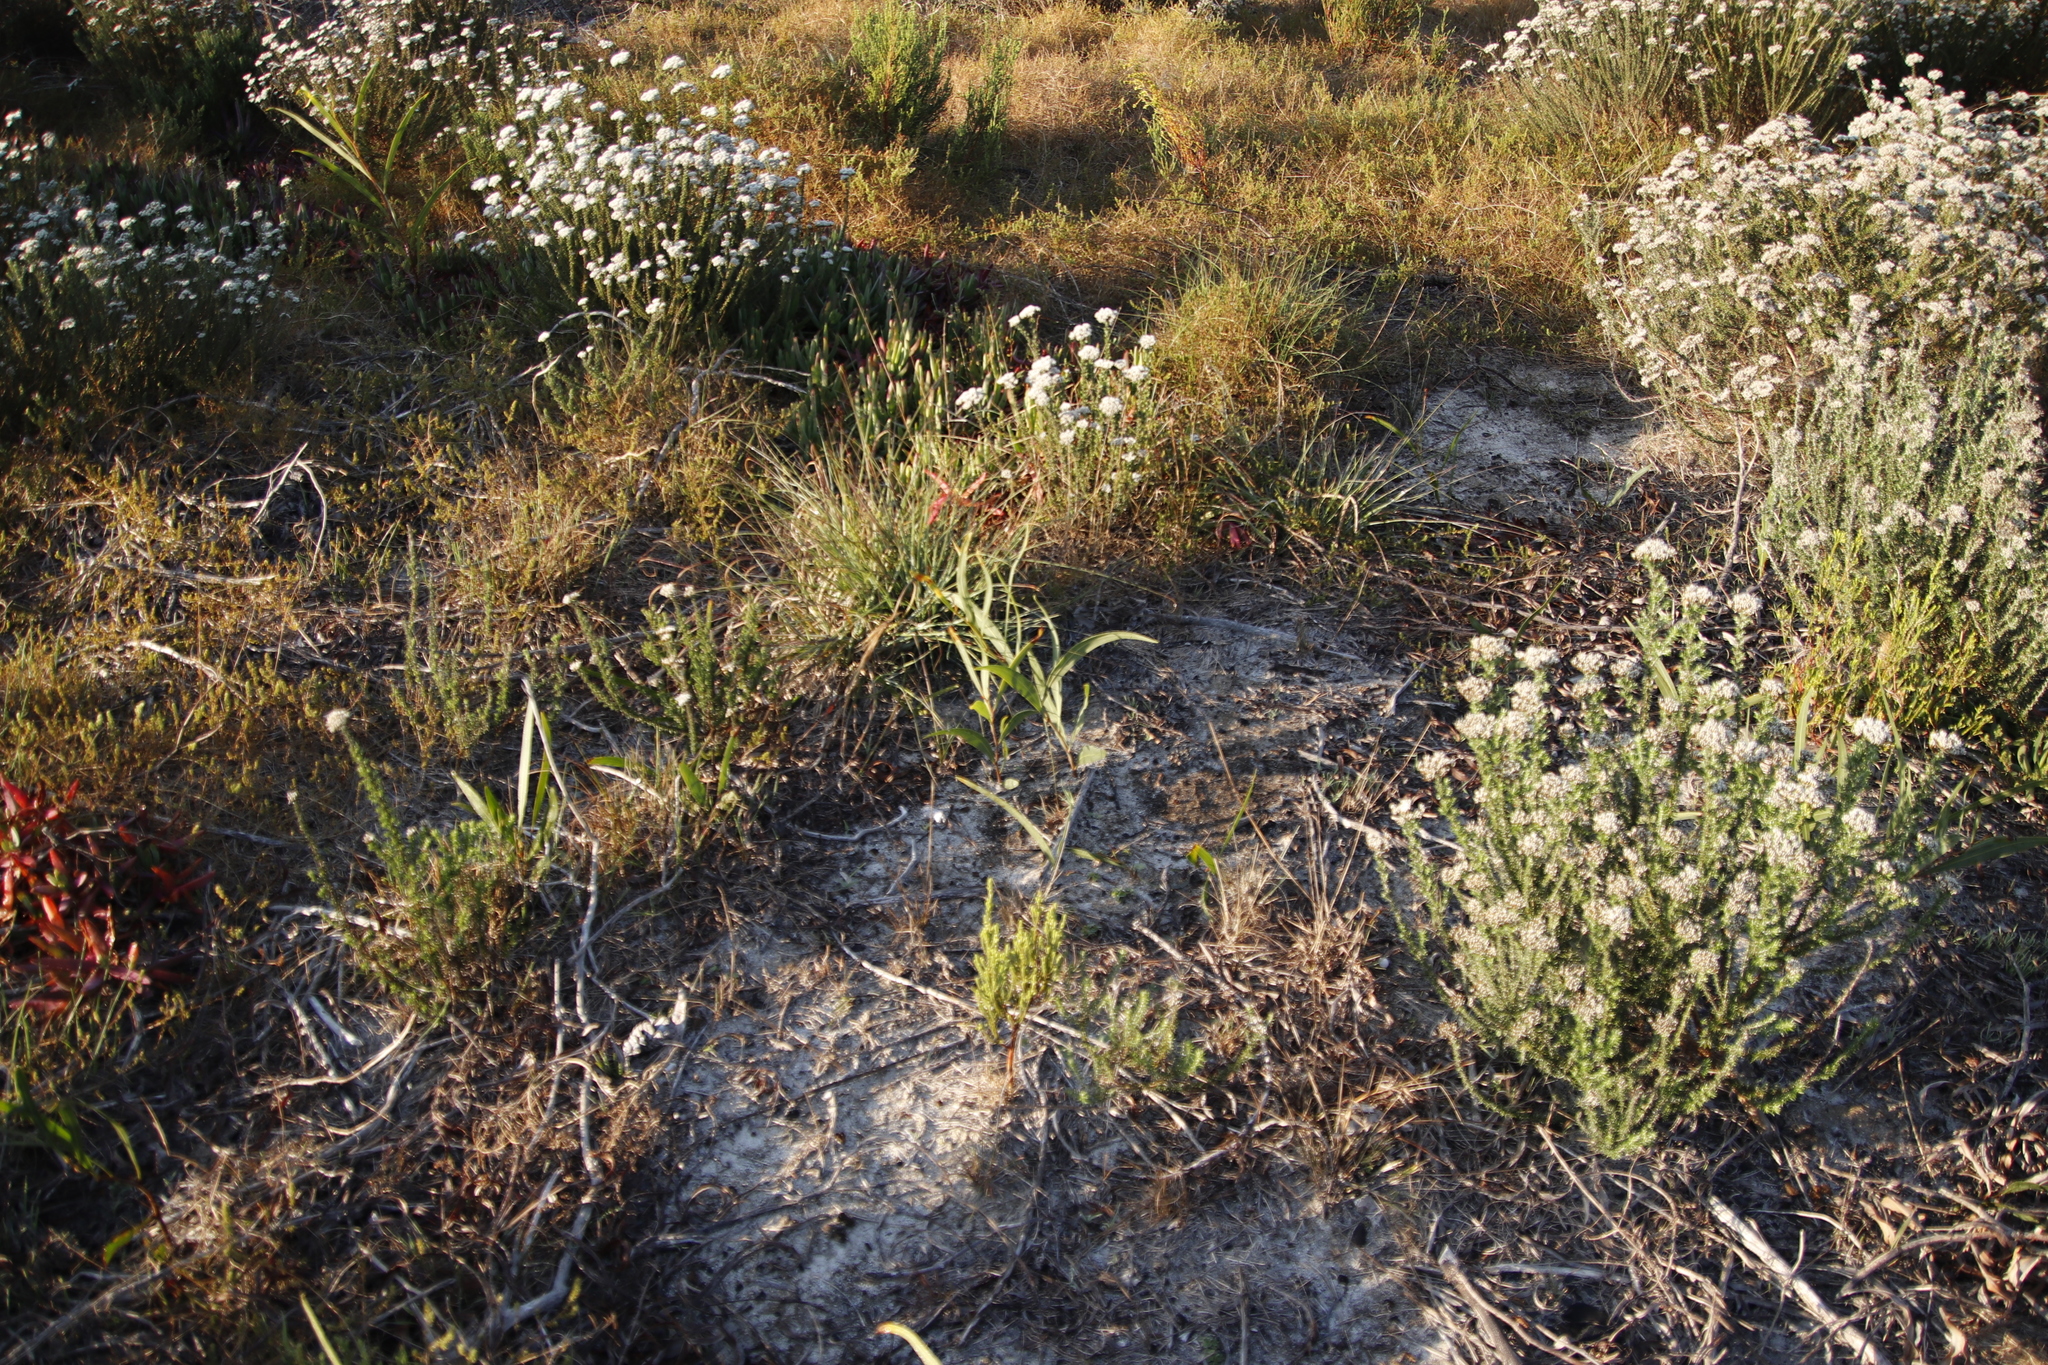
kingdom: Plantae
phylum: Tracheophyta
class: Magnoliopsida
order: Fabales
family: Fabaceae
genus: Acacia
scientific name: Acacia saligna
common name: Orange wattle
